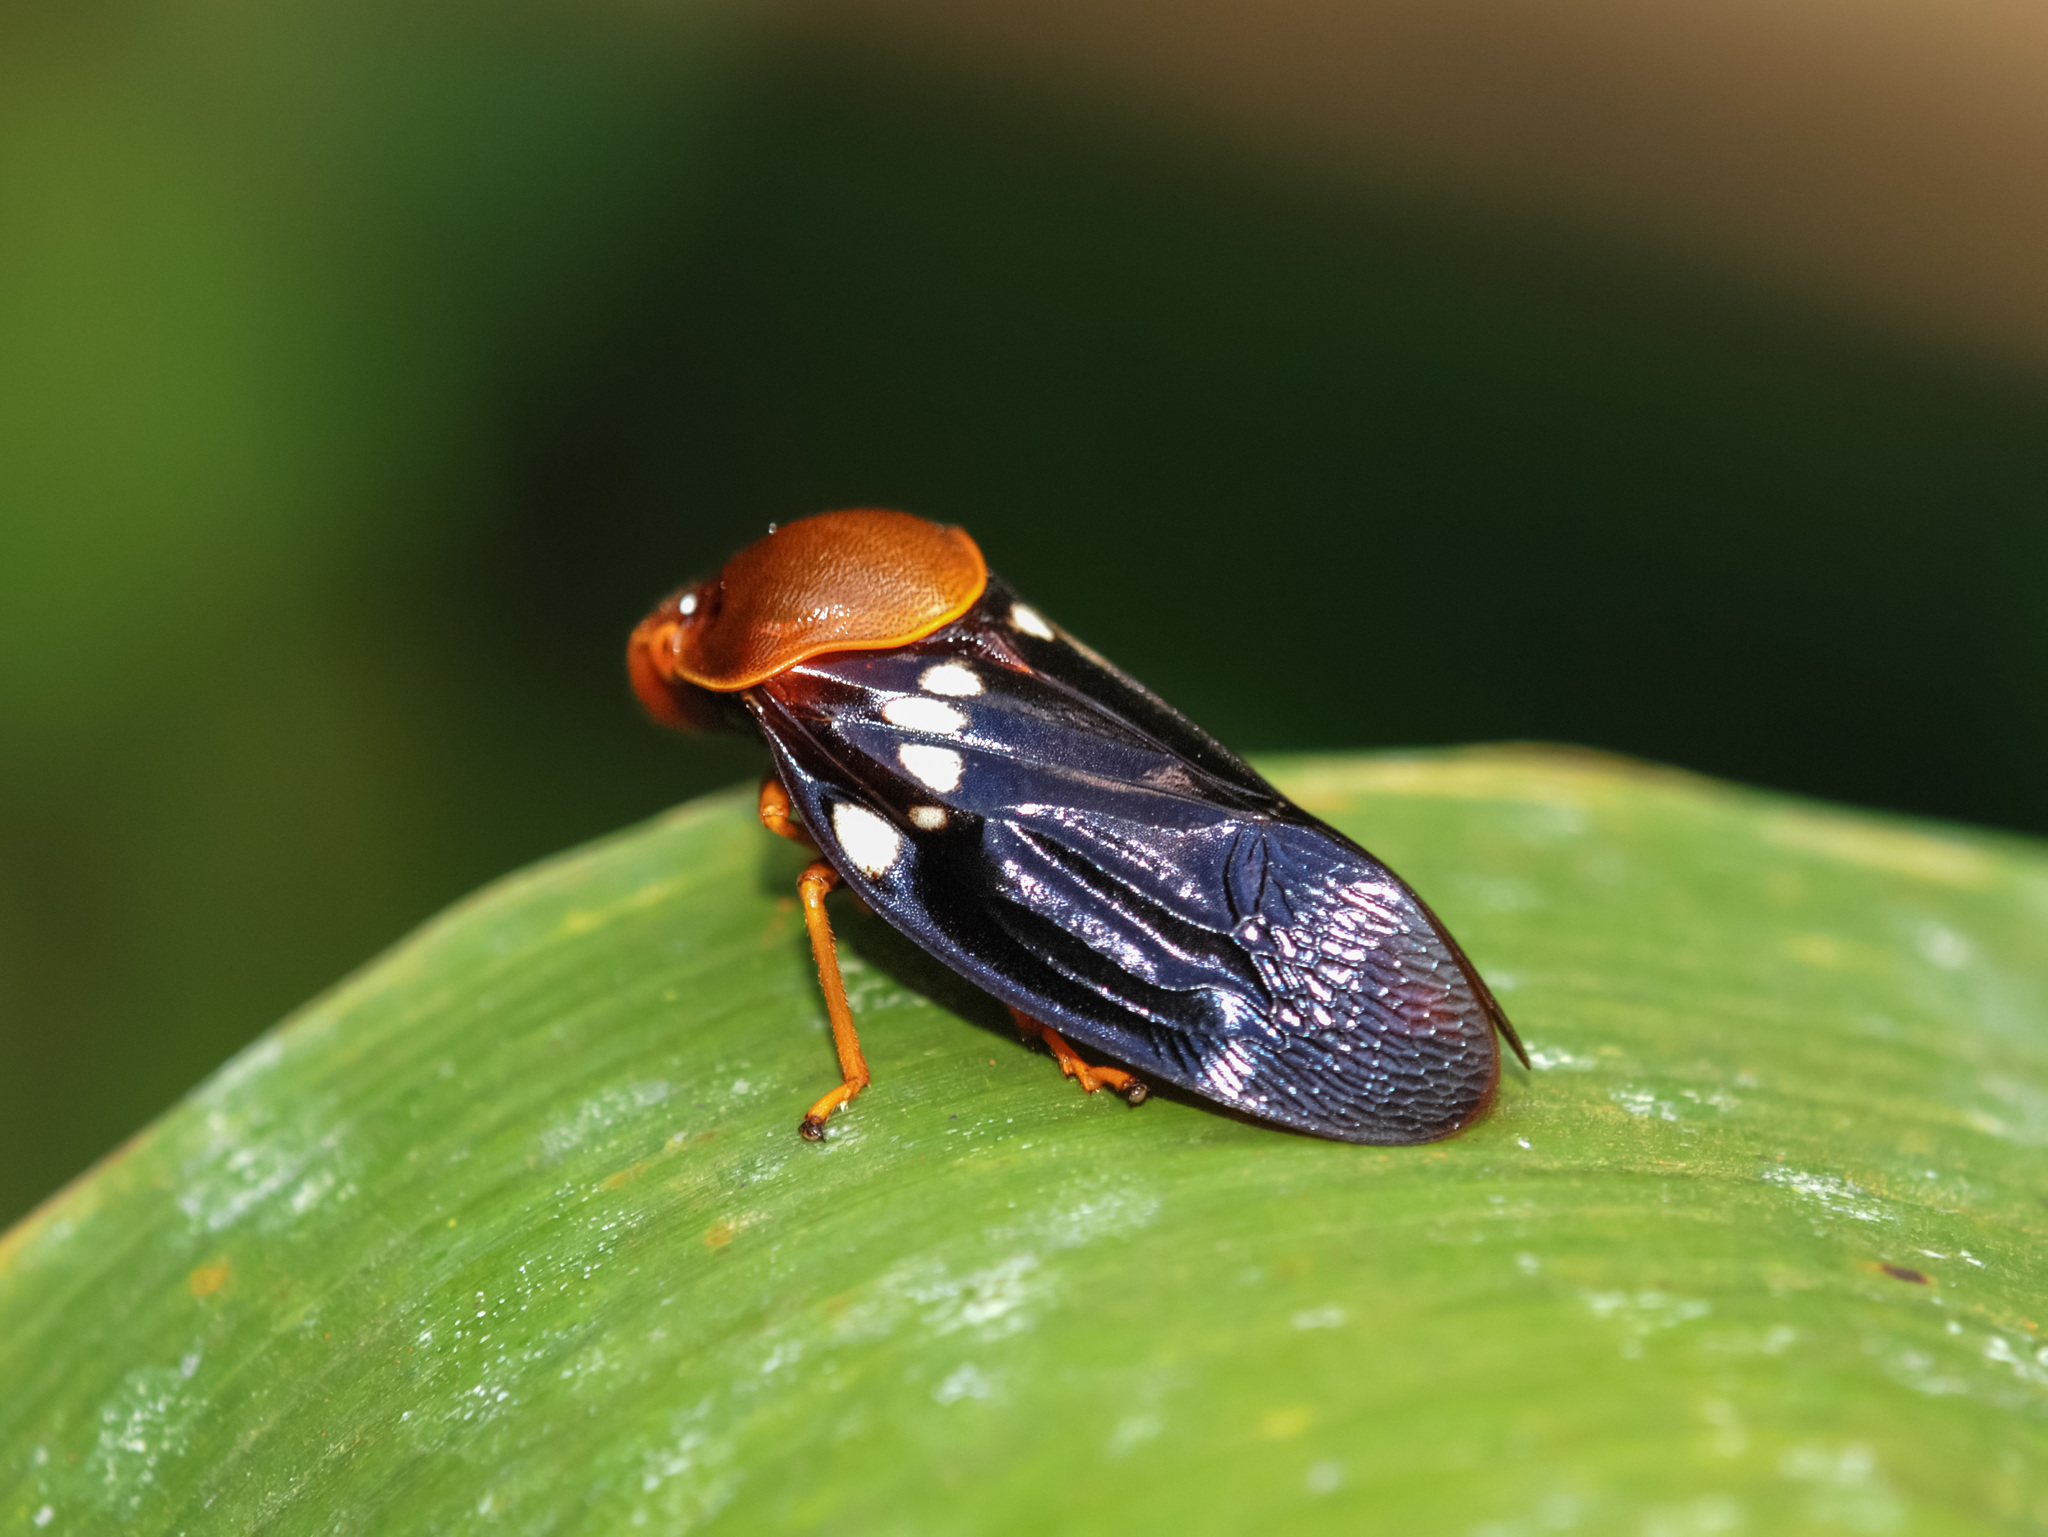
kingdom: Animalia
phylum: Arthropoda
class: Insecta
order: Hemiptera
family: Cercopidae
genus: Suracarta
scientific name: Suracarta tricolor
